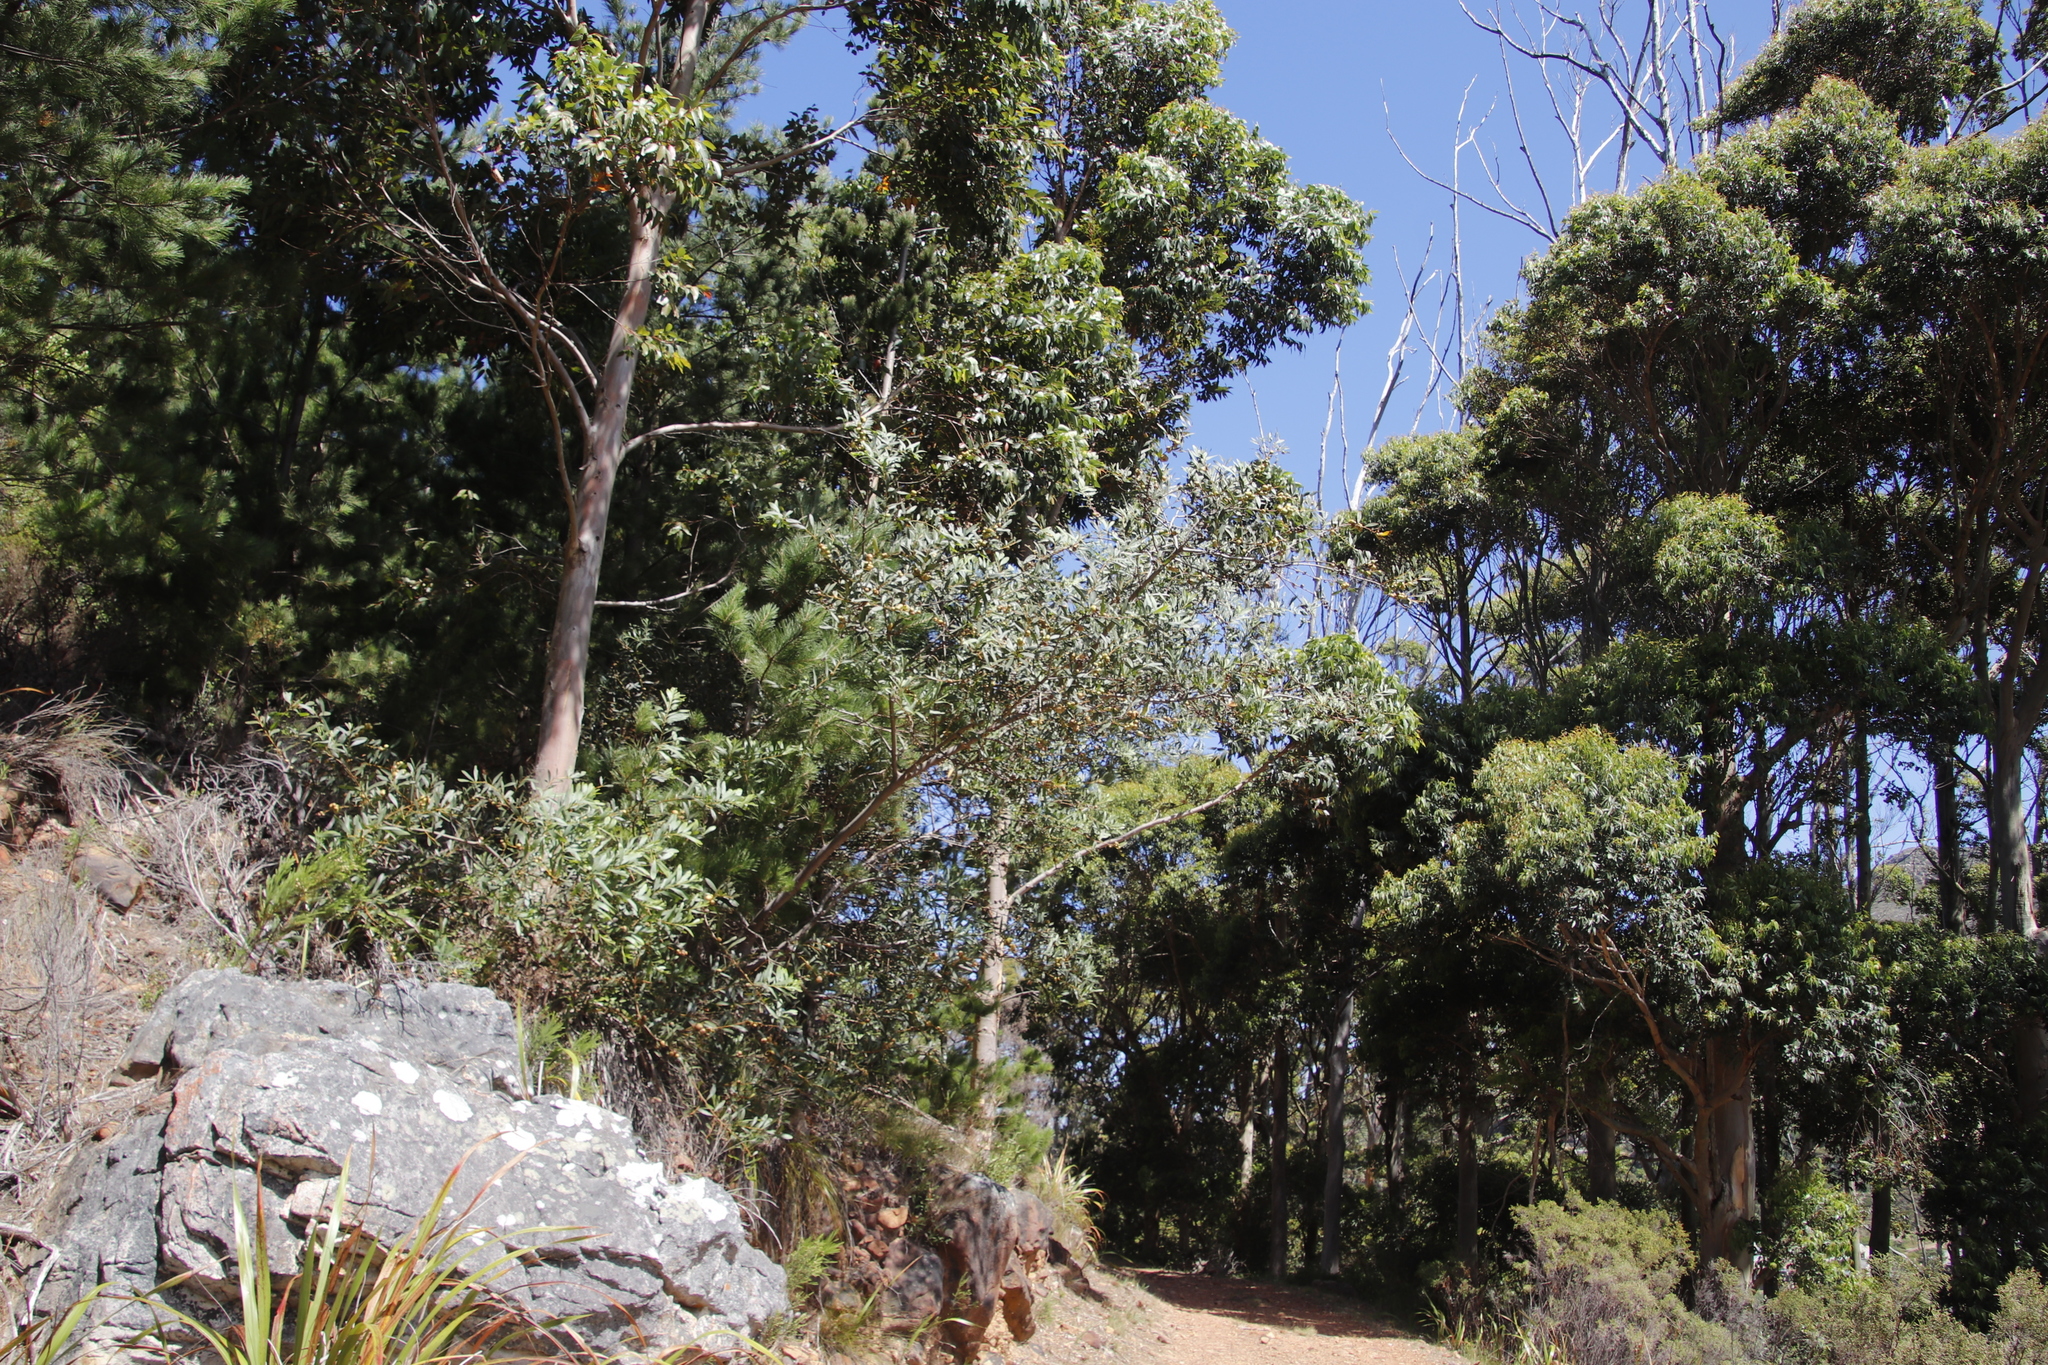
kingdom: Plantae
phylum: Tracheophyta
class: Magnoliopsida
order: Fabales
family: Fabaceae
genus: Acacia
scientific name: Acacia longifolia
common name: Sydney golden wattle
